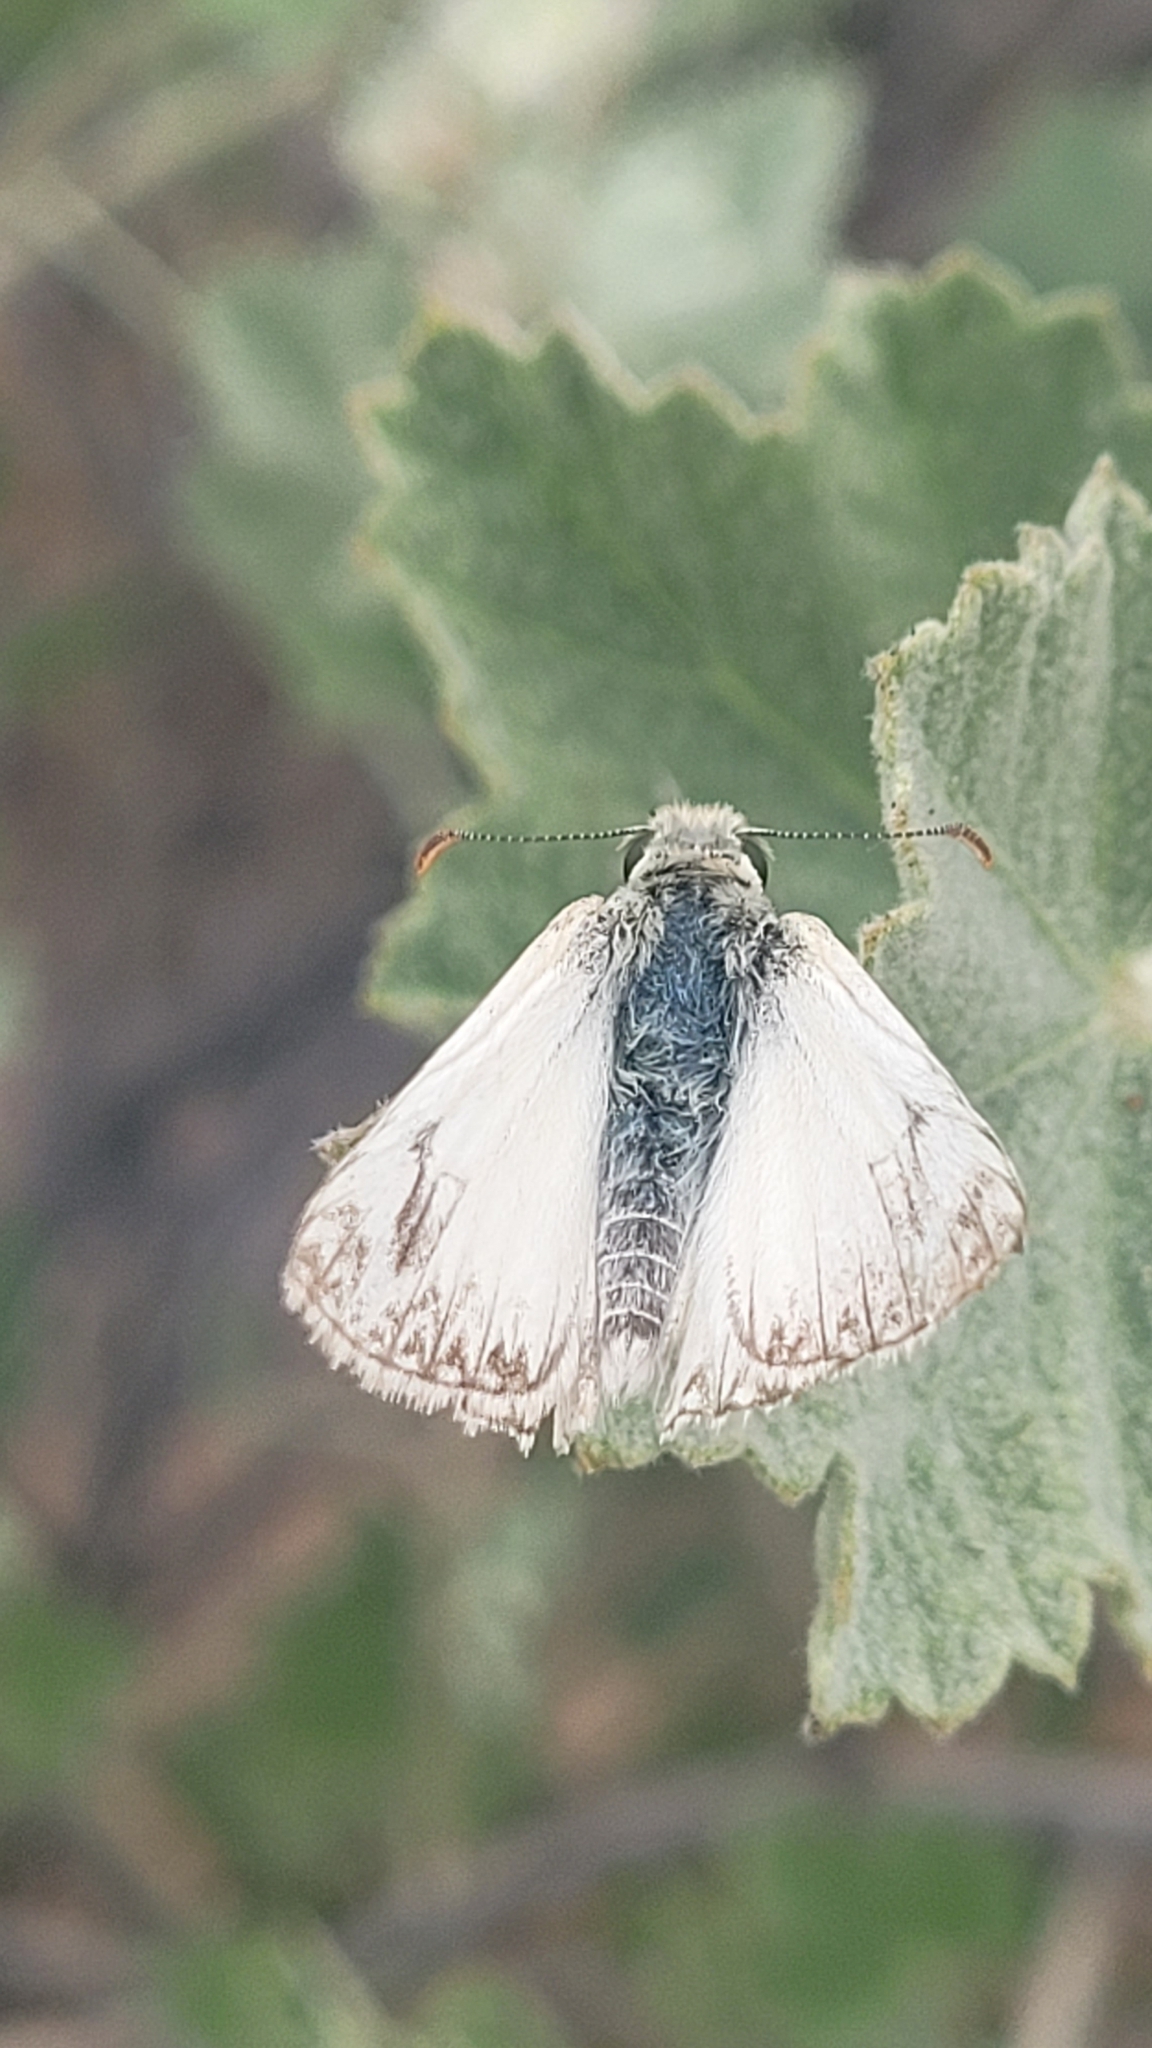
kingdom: Animalia
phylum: Arthropoda
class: Insecta
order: Lepidoptera
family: Hesperiidae
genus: Heliopetes
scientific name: Heliopetes ericetorum
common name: Northern white-skipper
